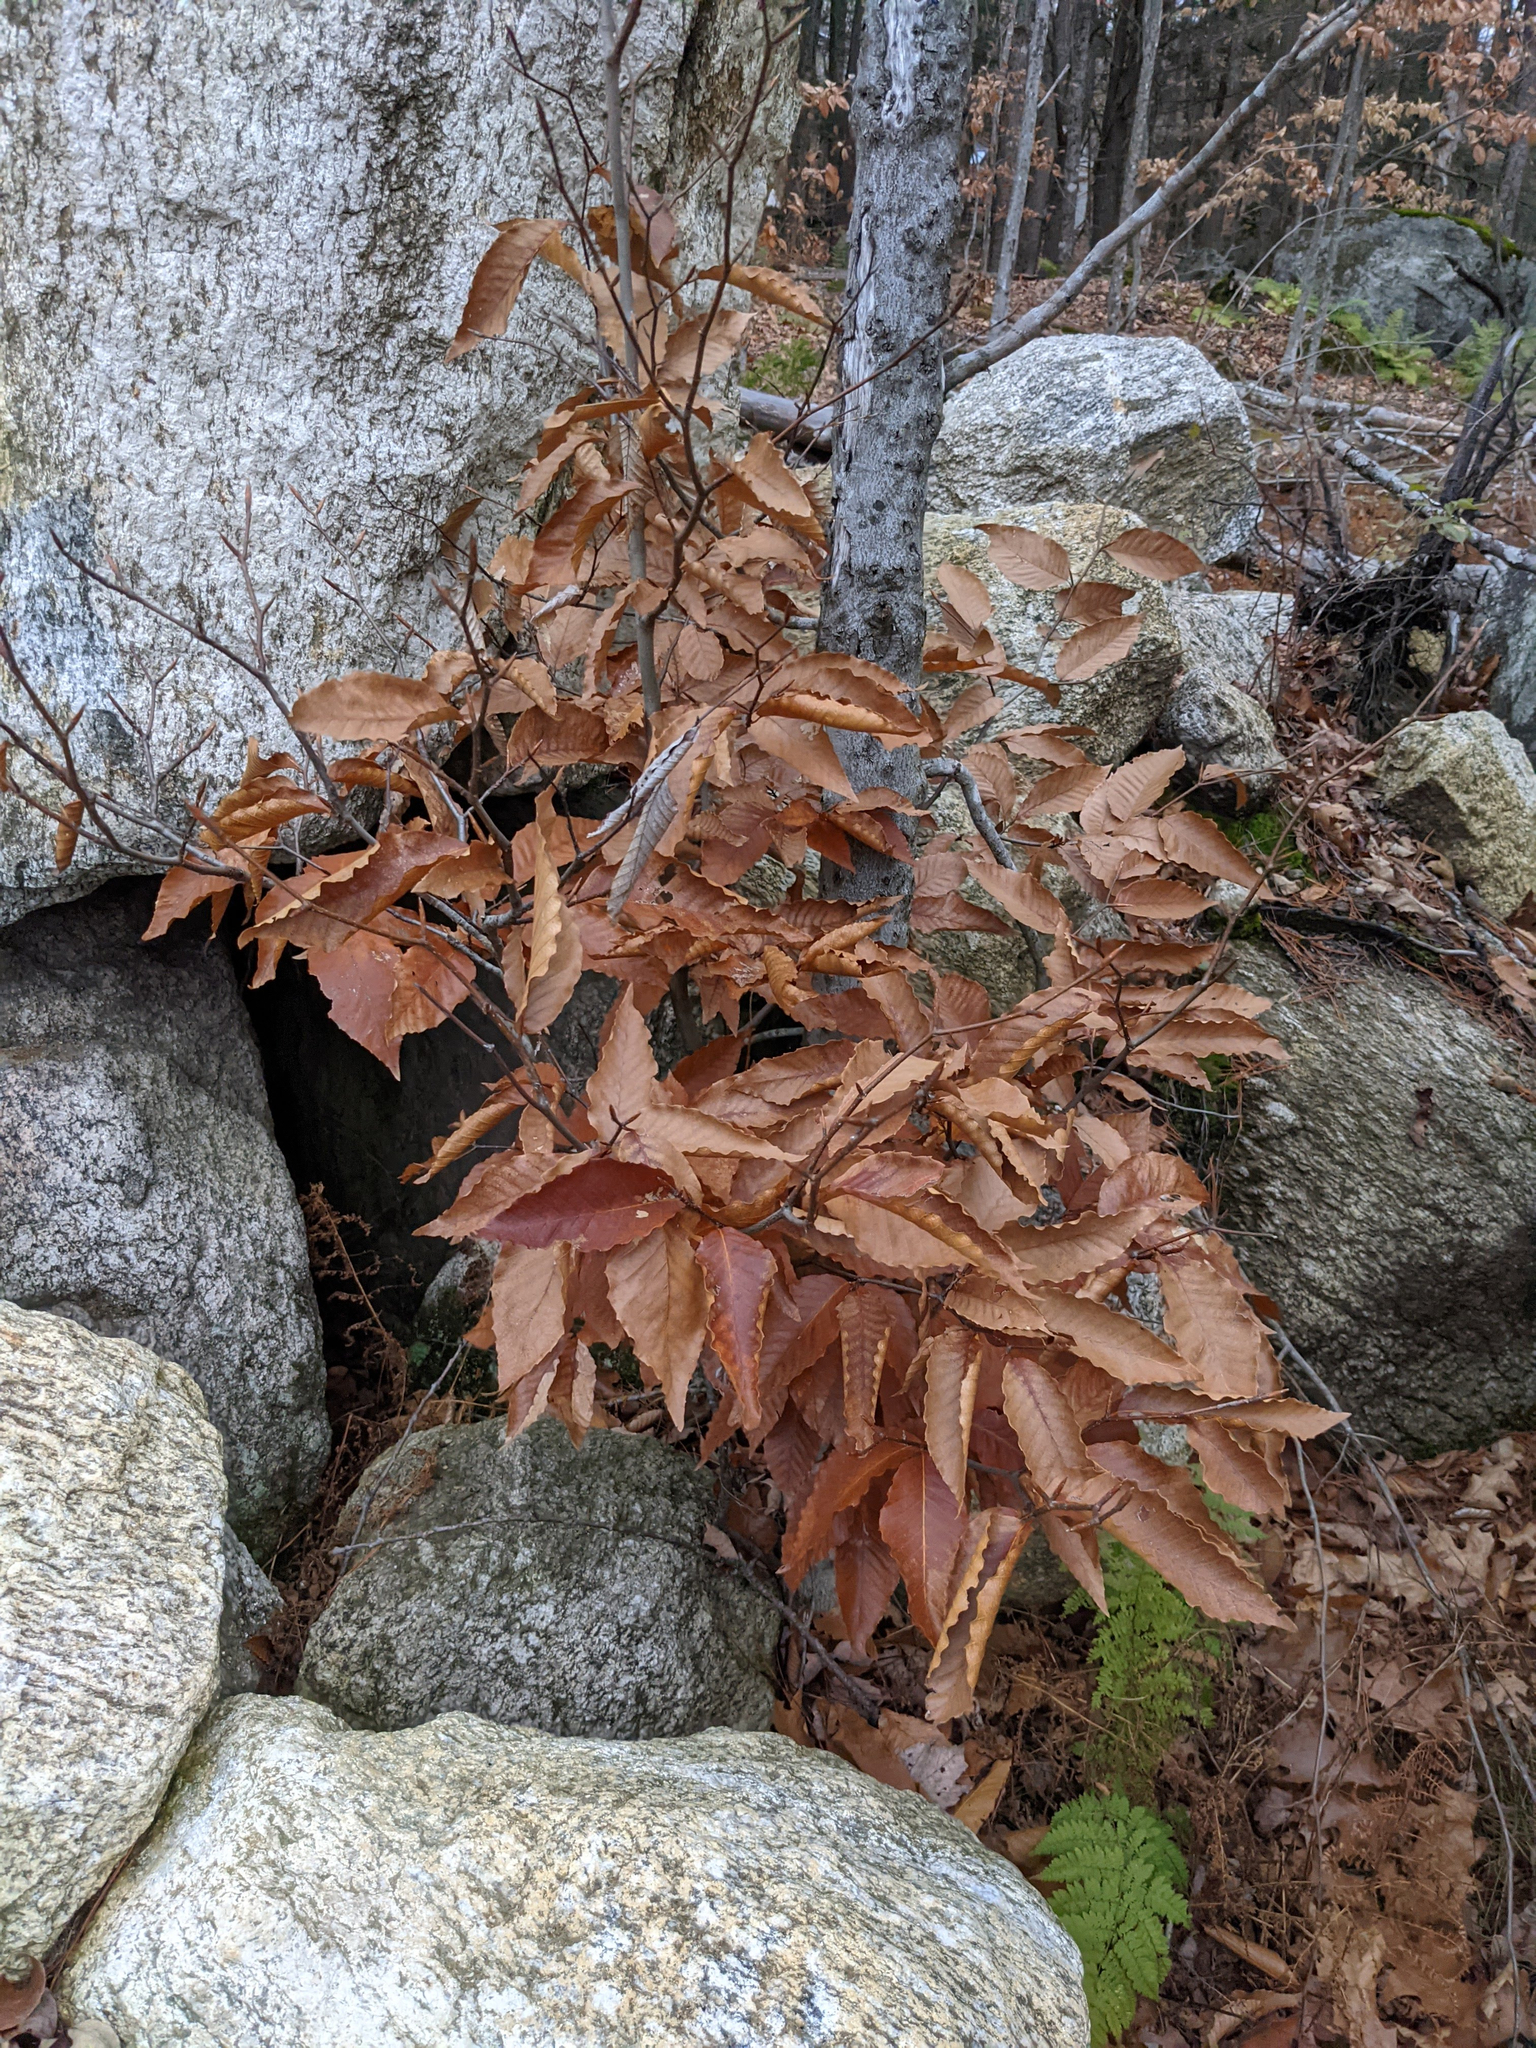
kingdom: Plantae
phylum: Tracheophyta
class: Magnoliopsida
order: Fagales
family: Fagaceae
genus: Fagus
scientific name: Fagus grandifolia
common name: American beech
